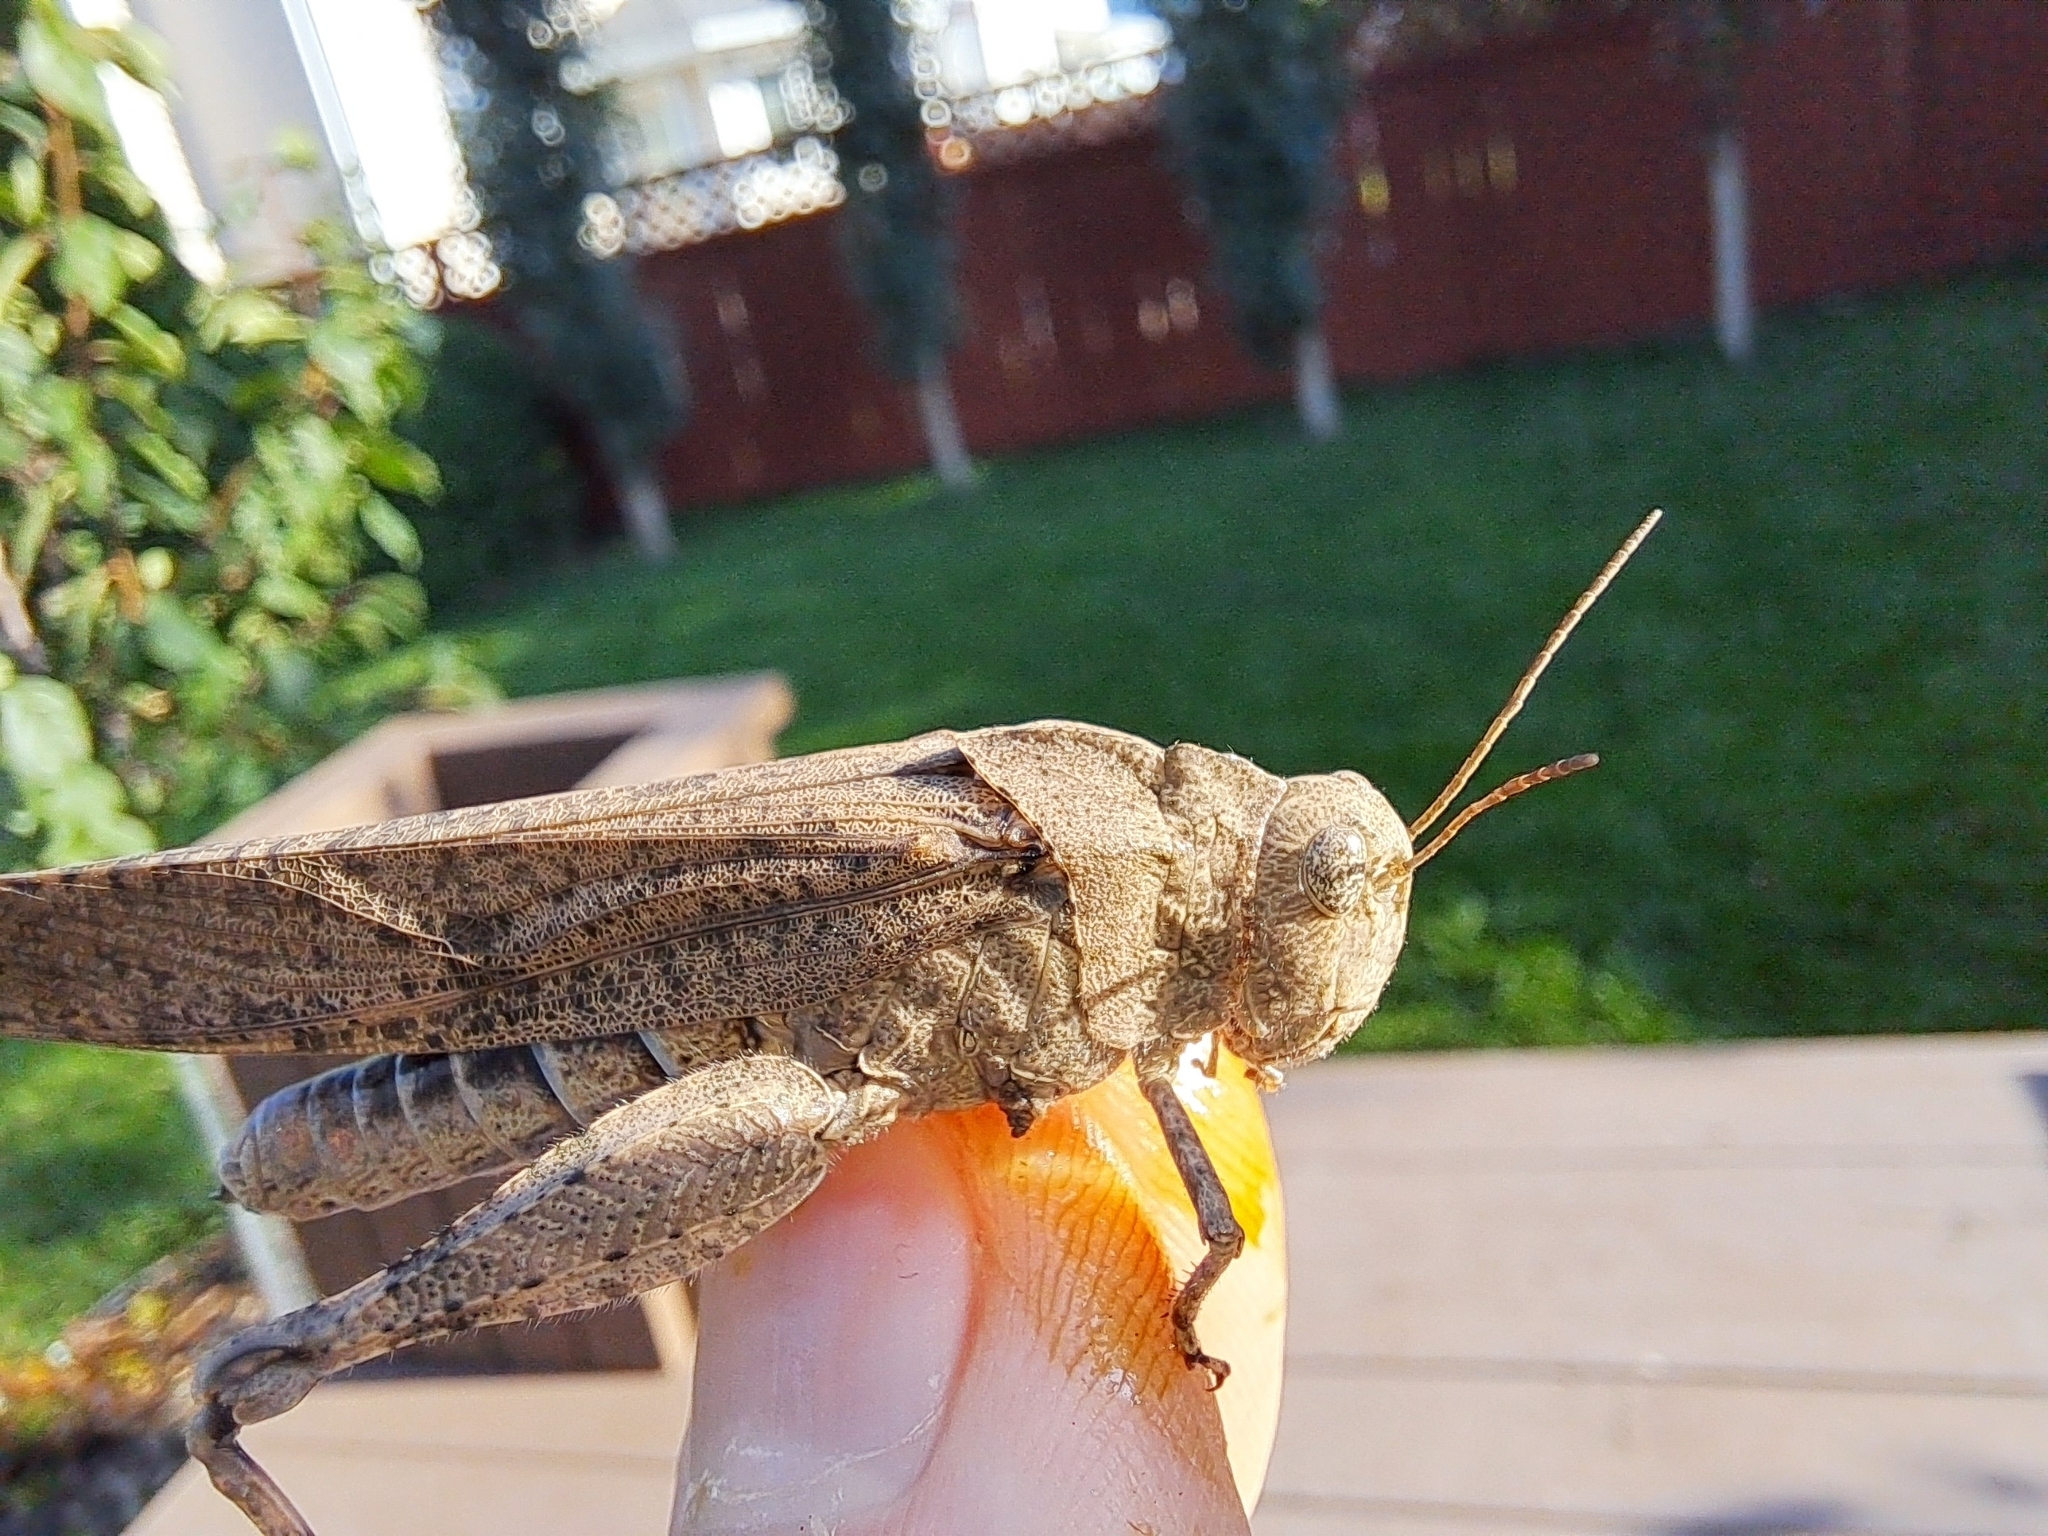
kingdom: Animalia
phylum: Arthropoda
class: Insecta
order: Orthoptera
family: Acrididae
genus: Dissosteira
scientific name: Dissosteira carolina
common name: Carolina grasshopper
